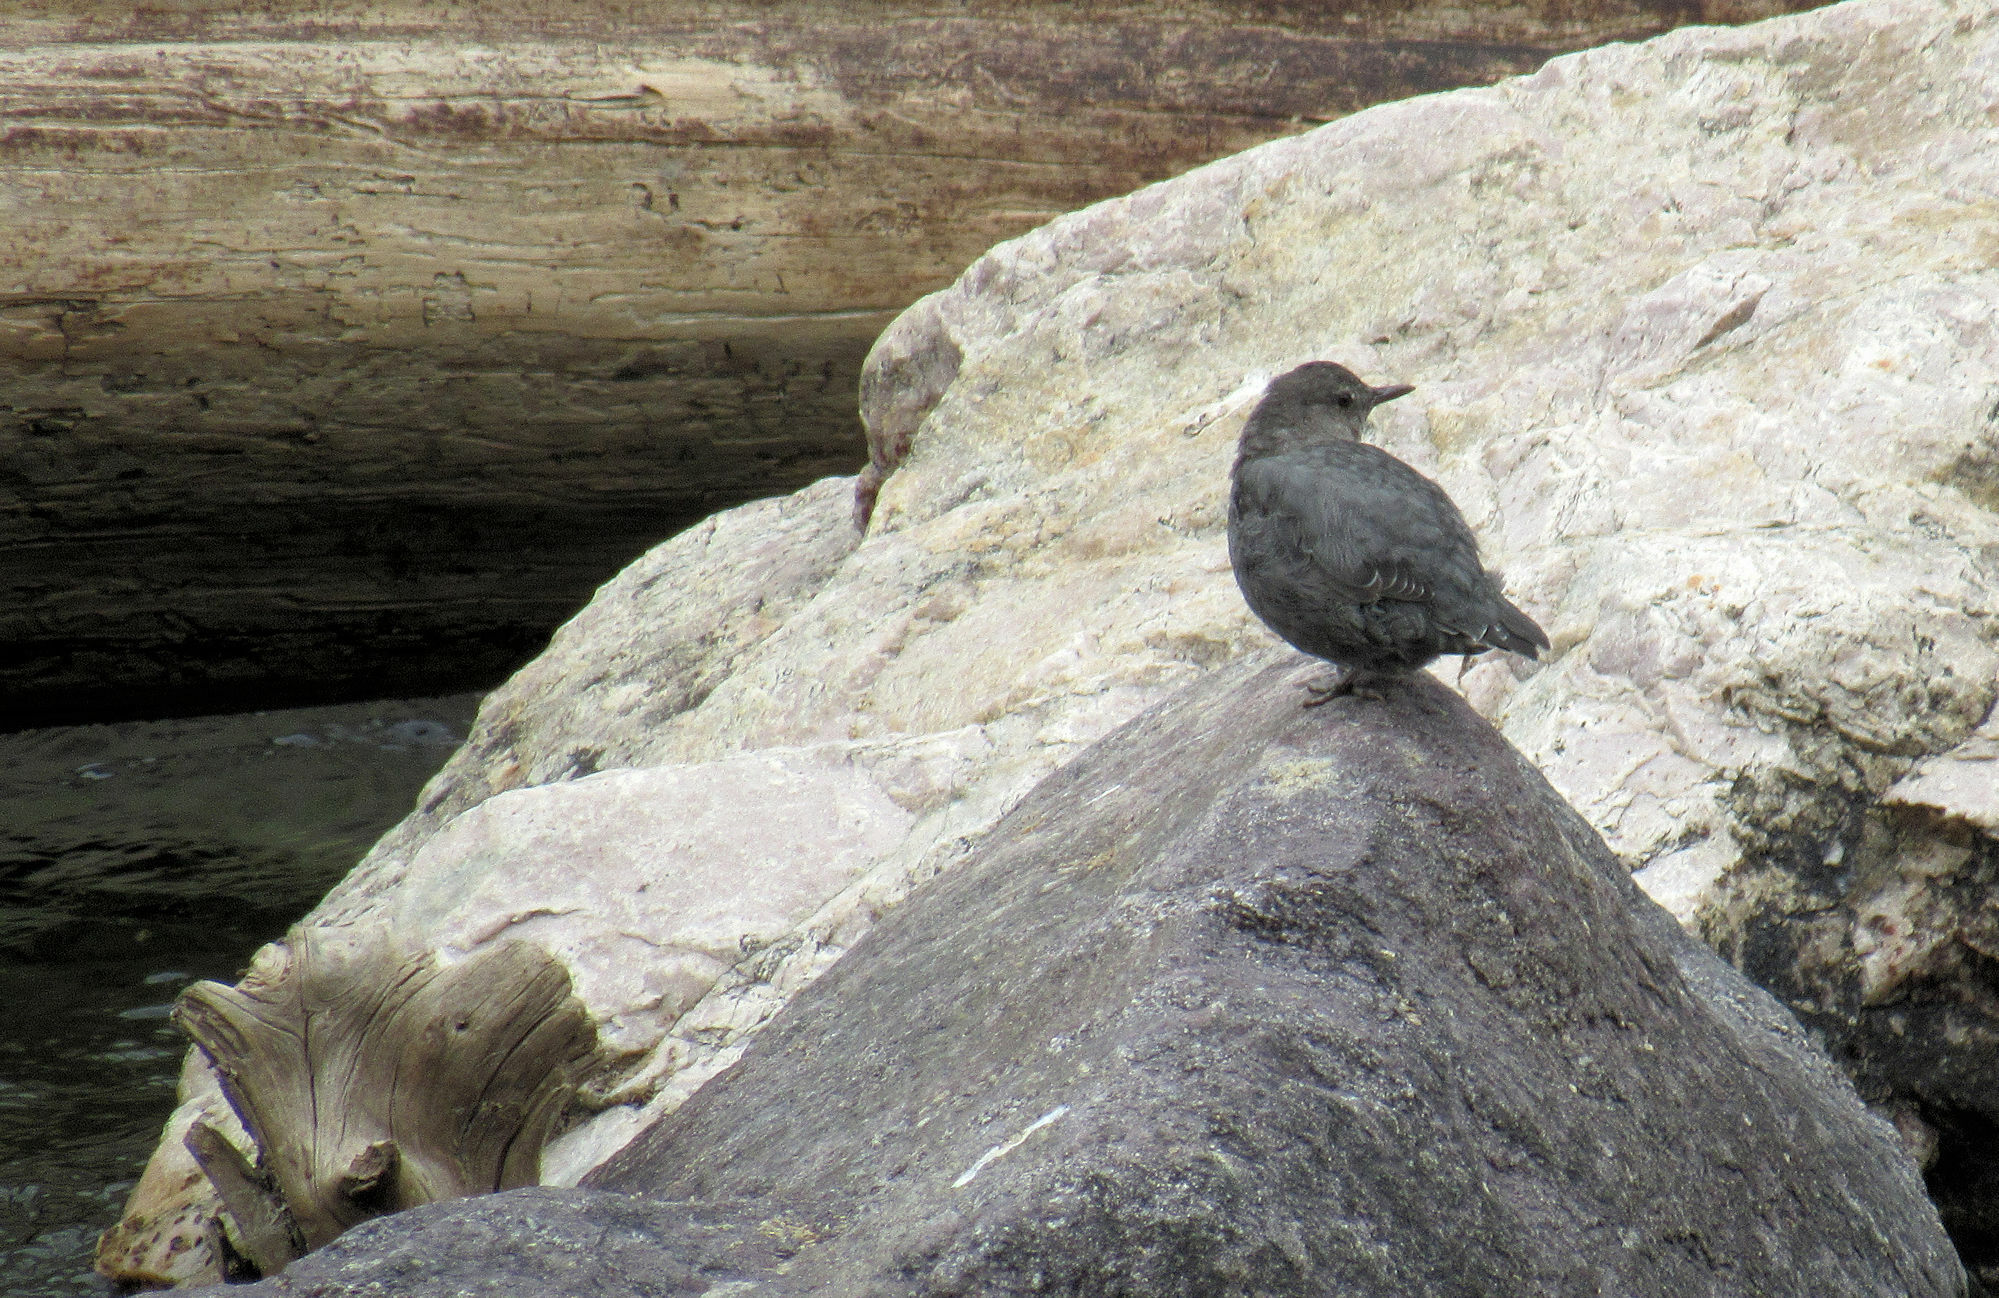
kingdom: Animalia
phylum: Chordata
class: Aves
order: Passeriformes
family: Cinclidae
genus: Cinclus
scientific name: Cinclus mexicanus
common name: American dipper
